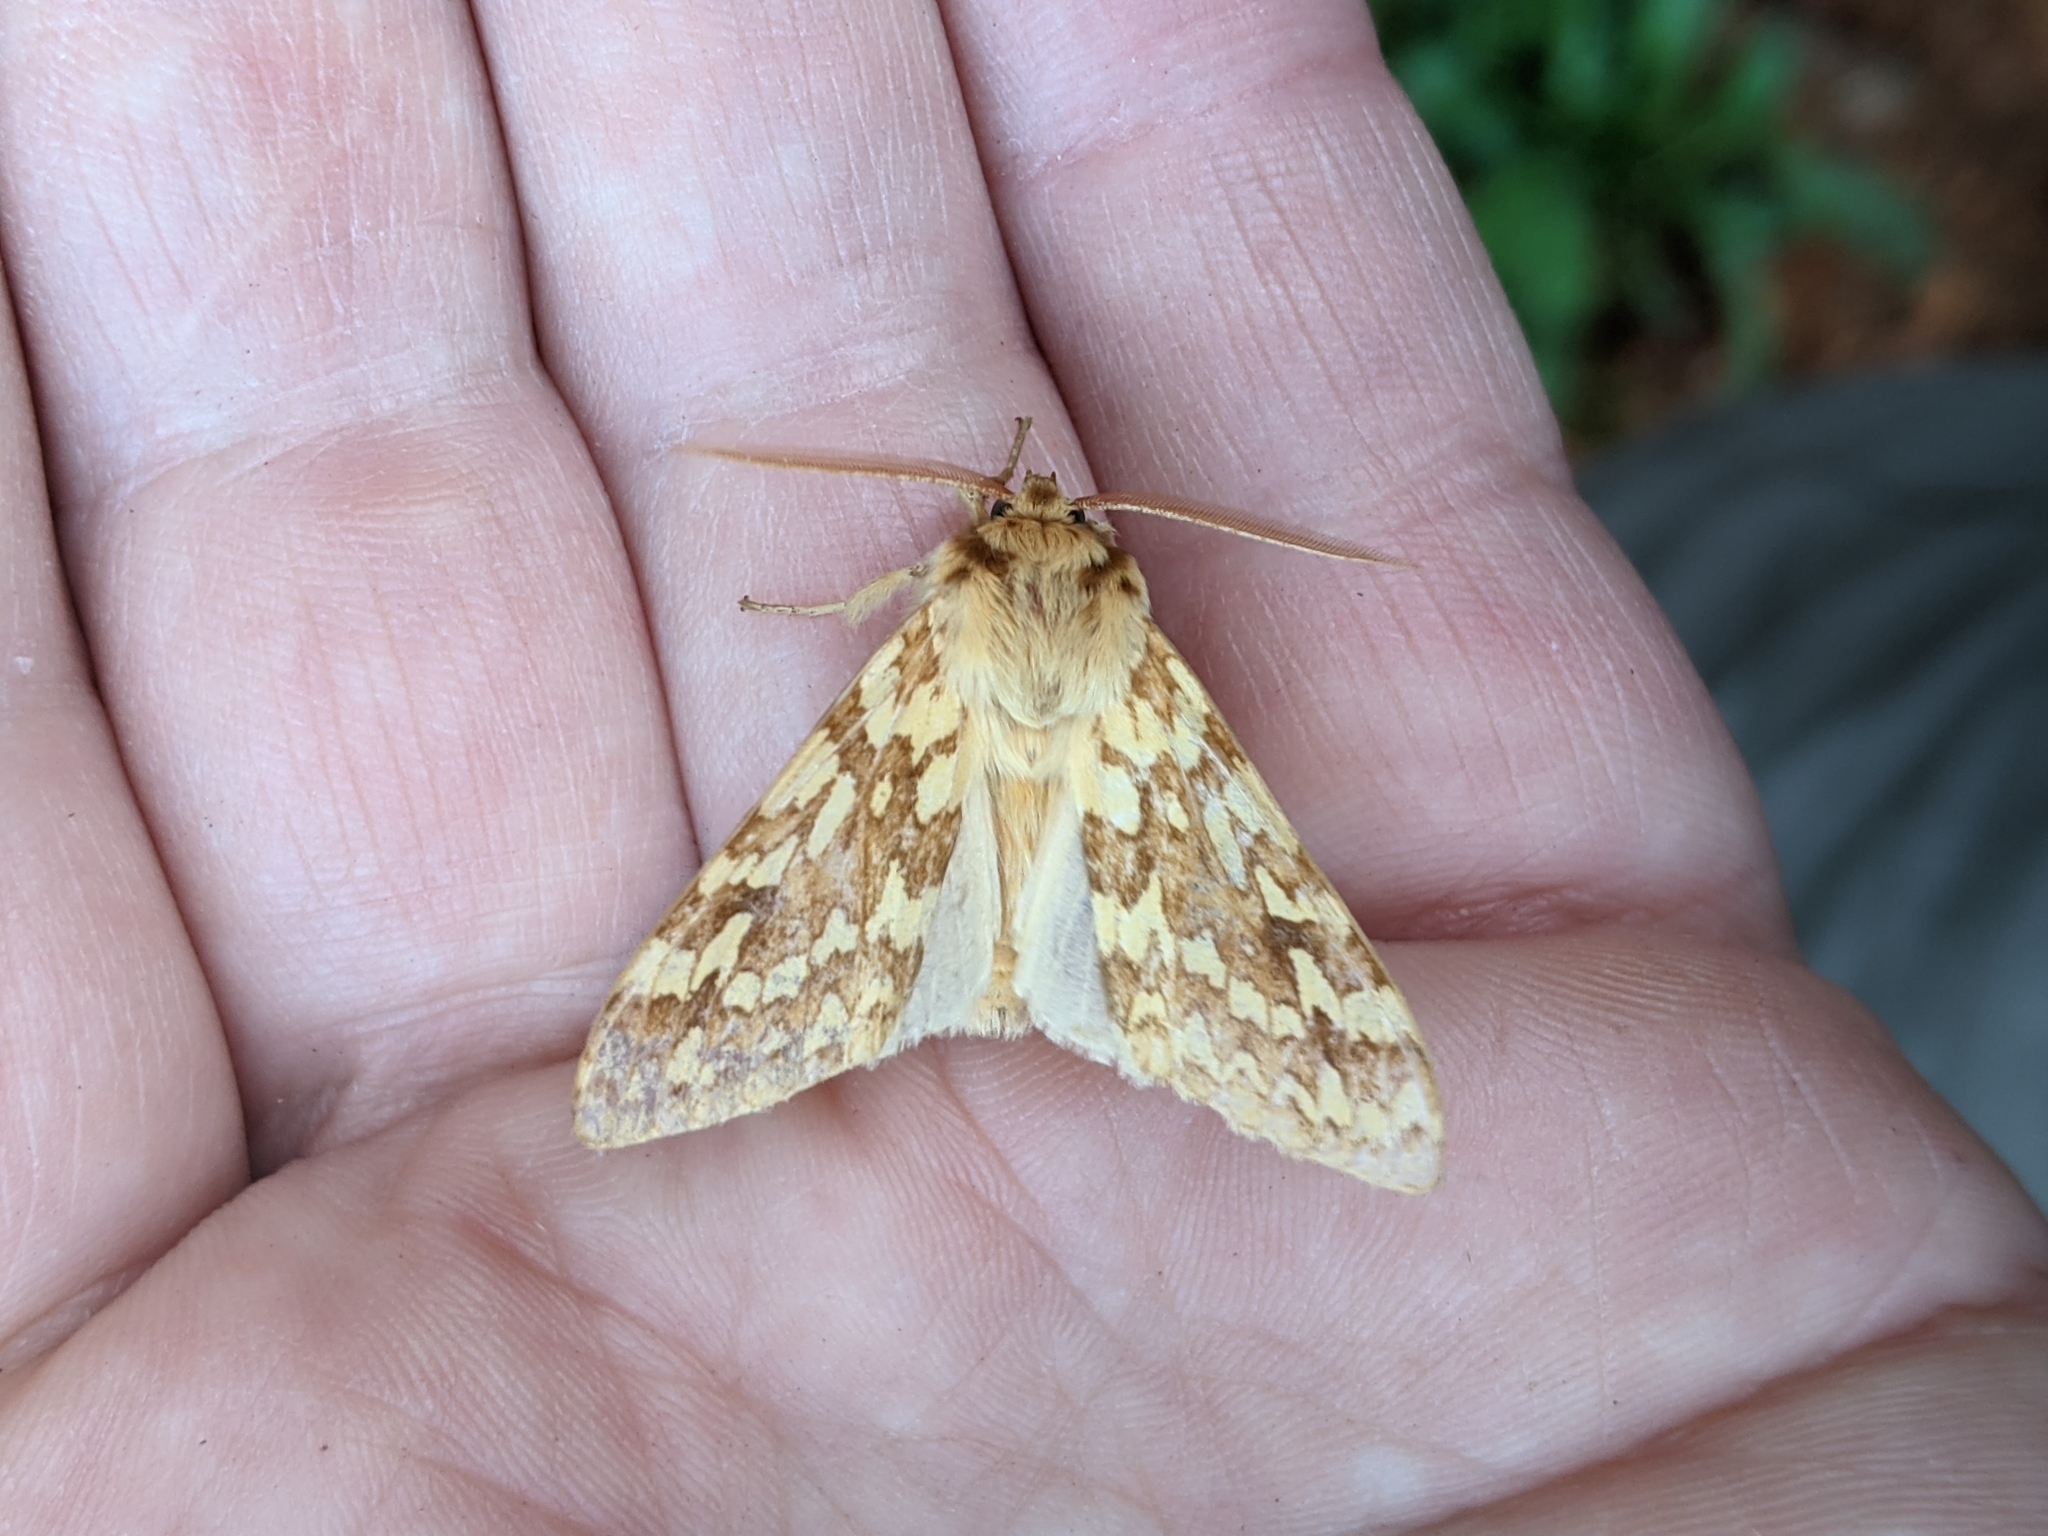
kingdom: Animalia
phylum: Arthropoda
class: Insecta
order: Lepidoptera
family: Erebidae
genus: Lophocampa
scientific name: Lophocampa maculata
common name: Spotted tussock moth
